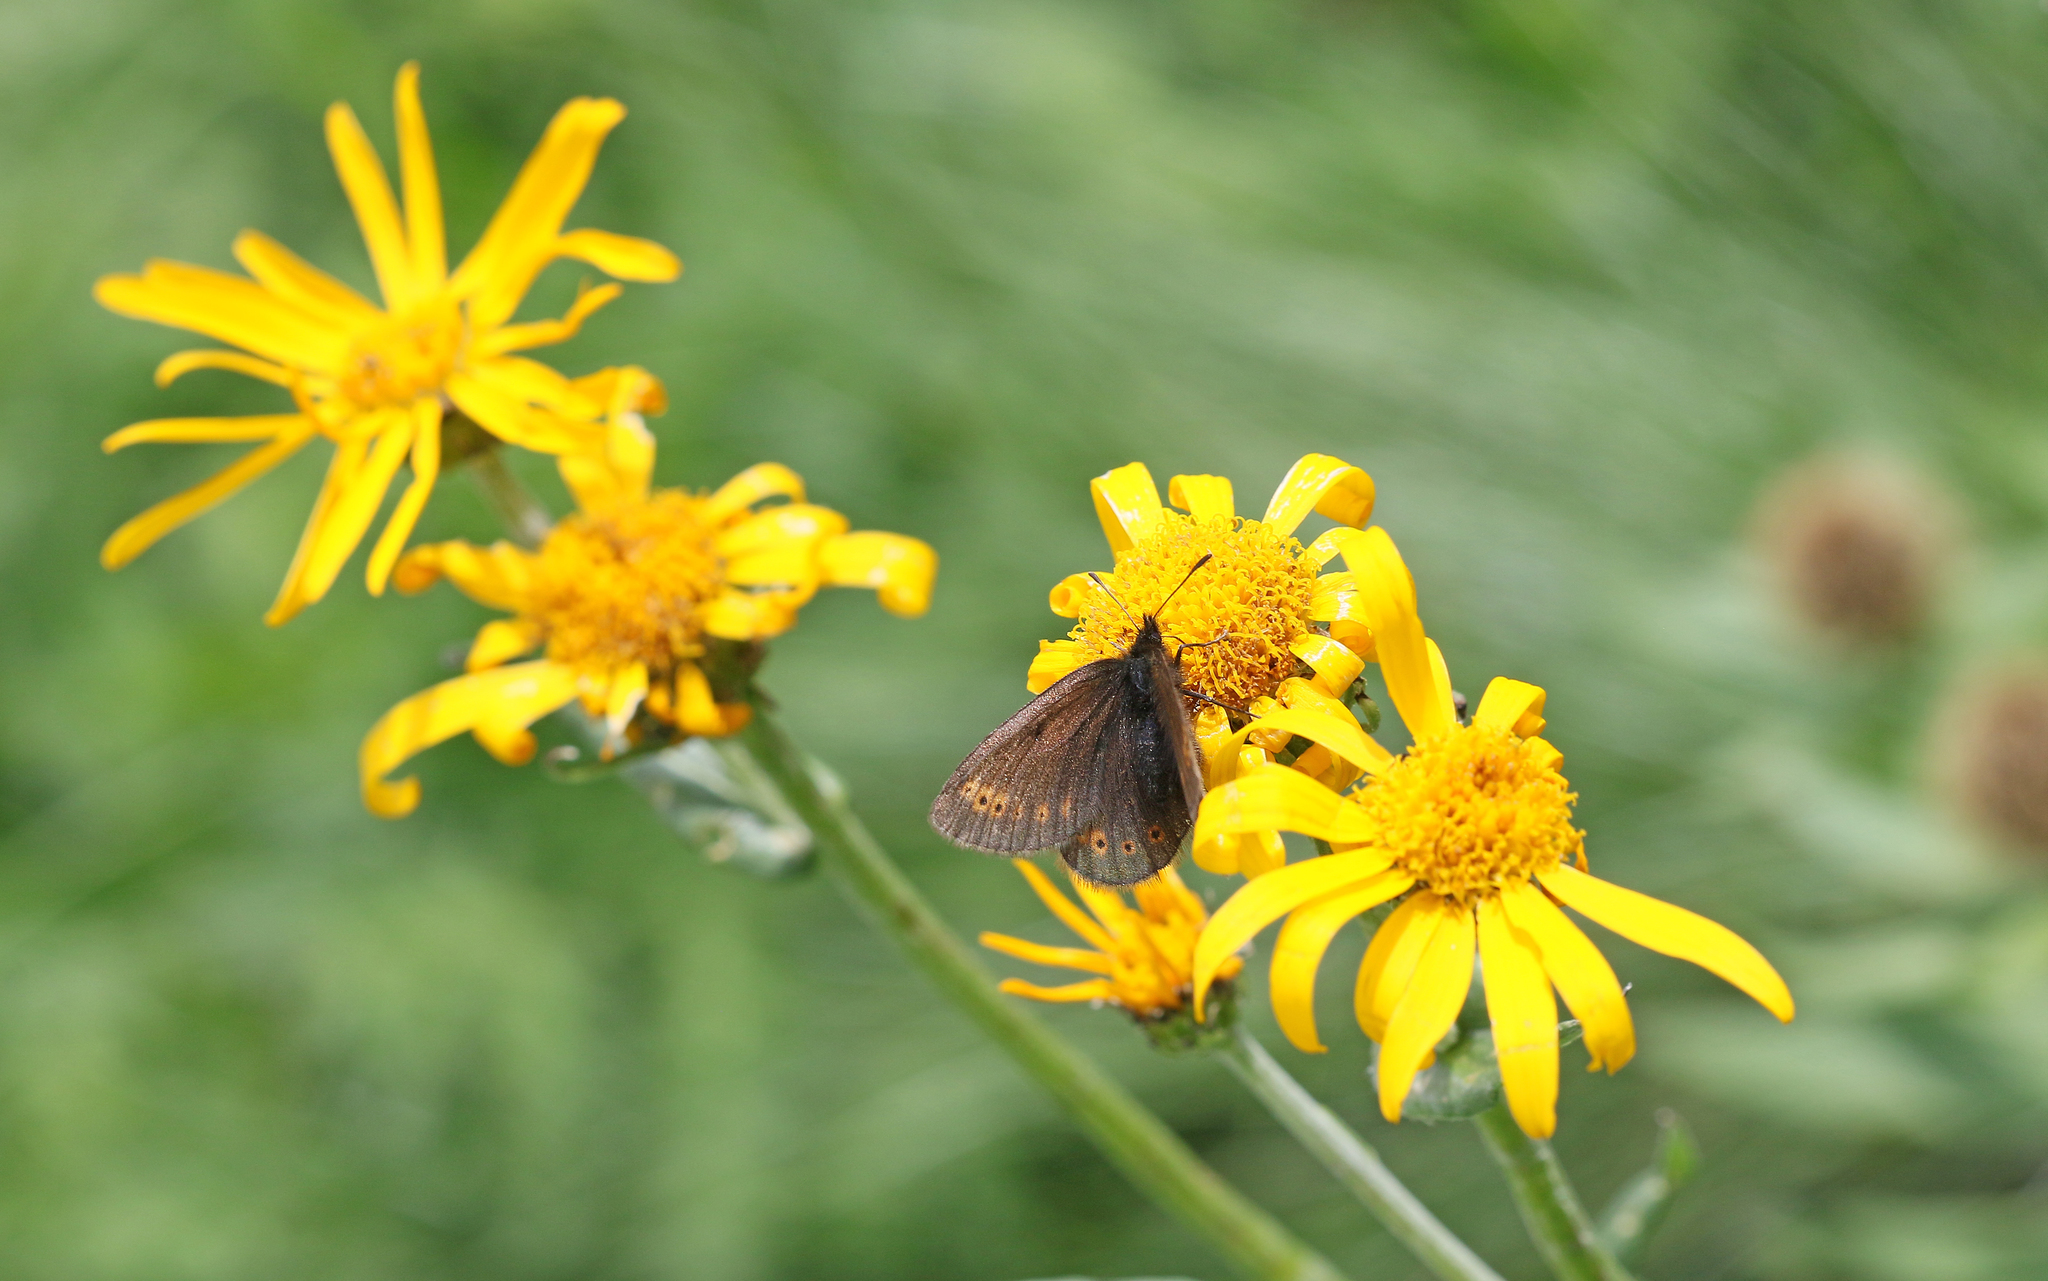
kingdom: Animalia
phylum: Arthropoda
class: Insecta
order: Lepidoptera
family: Nymphalidae
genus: Erebia
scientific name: Erebia flavofasciata
